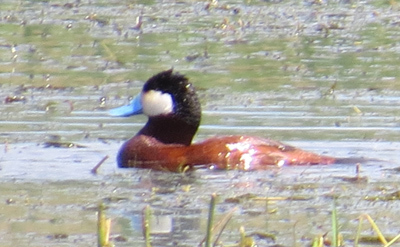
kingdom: Animalia
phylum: Chordata
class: Aves
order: Anseriformes
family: Anatidae
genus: Oxyura
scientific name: Oxyura jamaicensis
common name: Ruddy duck
